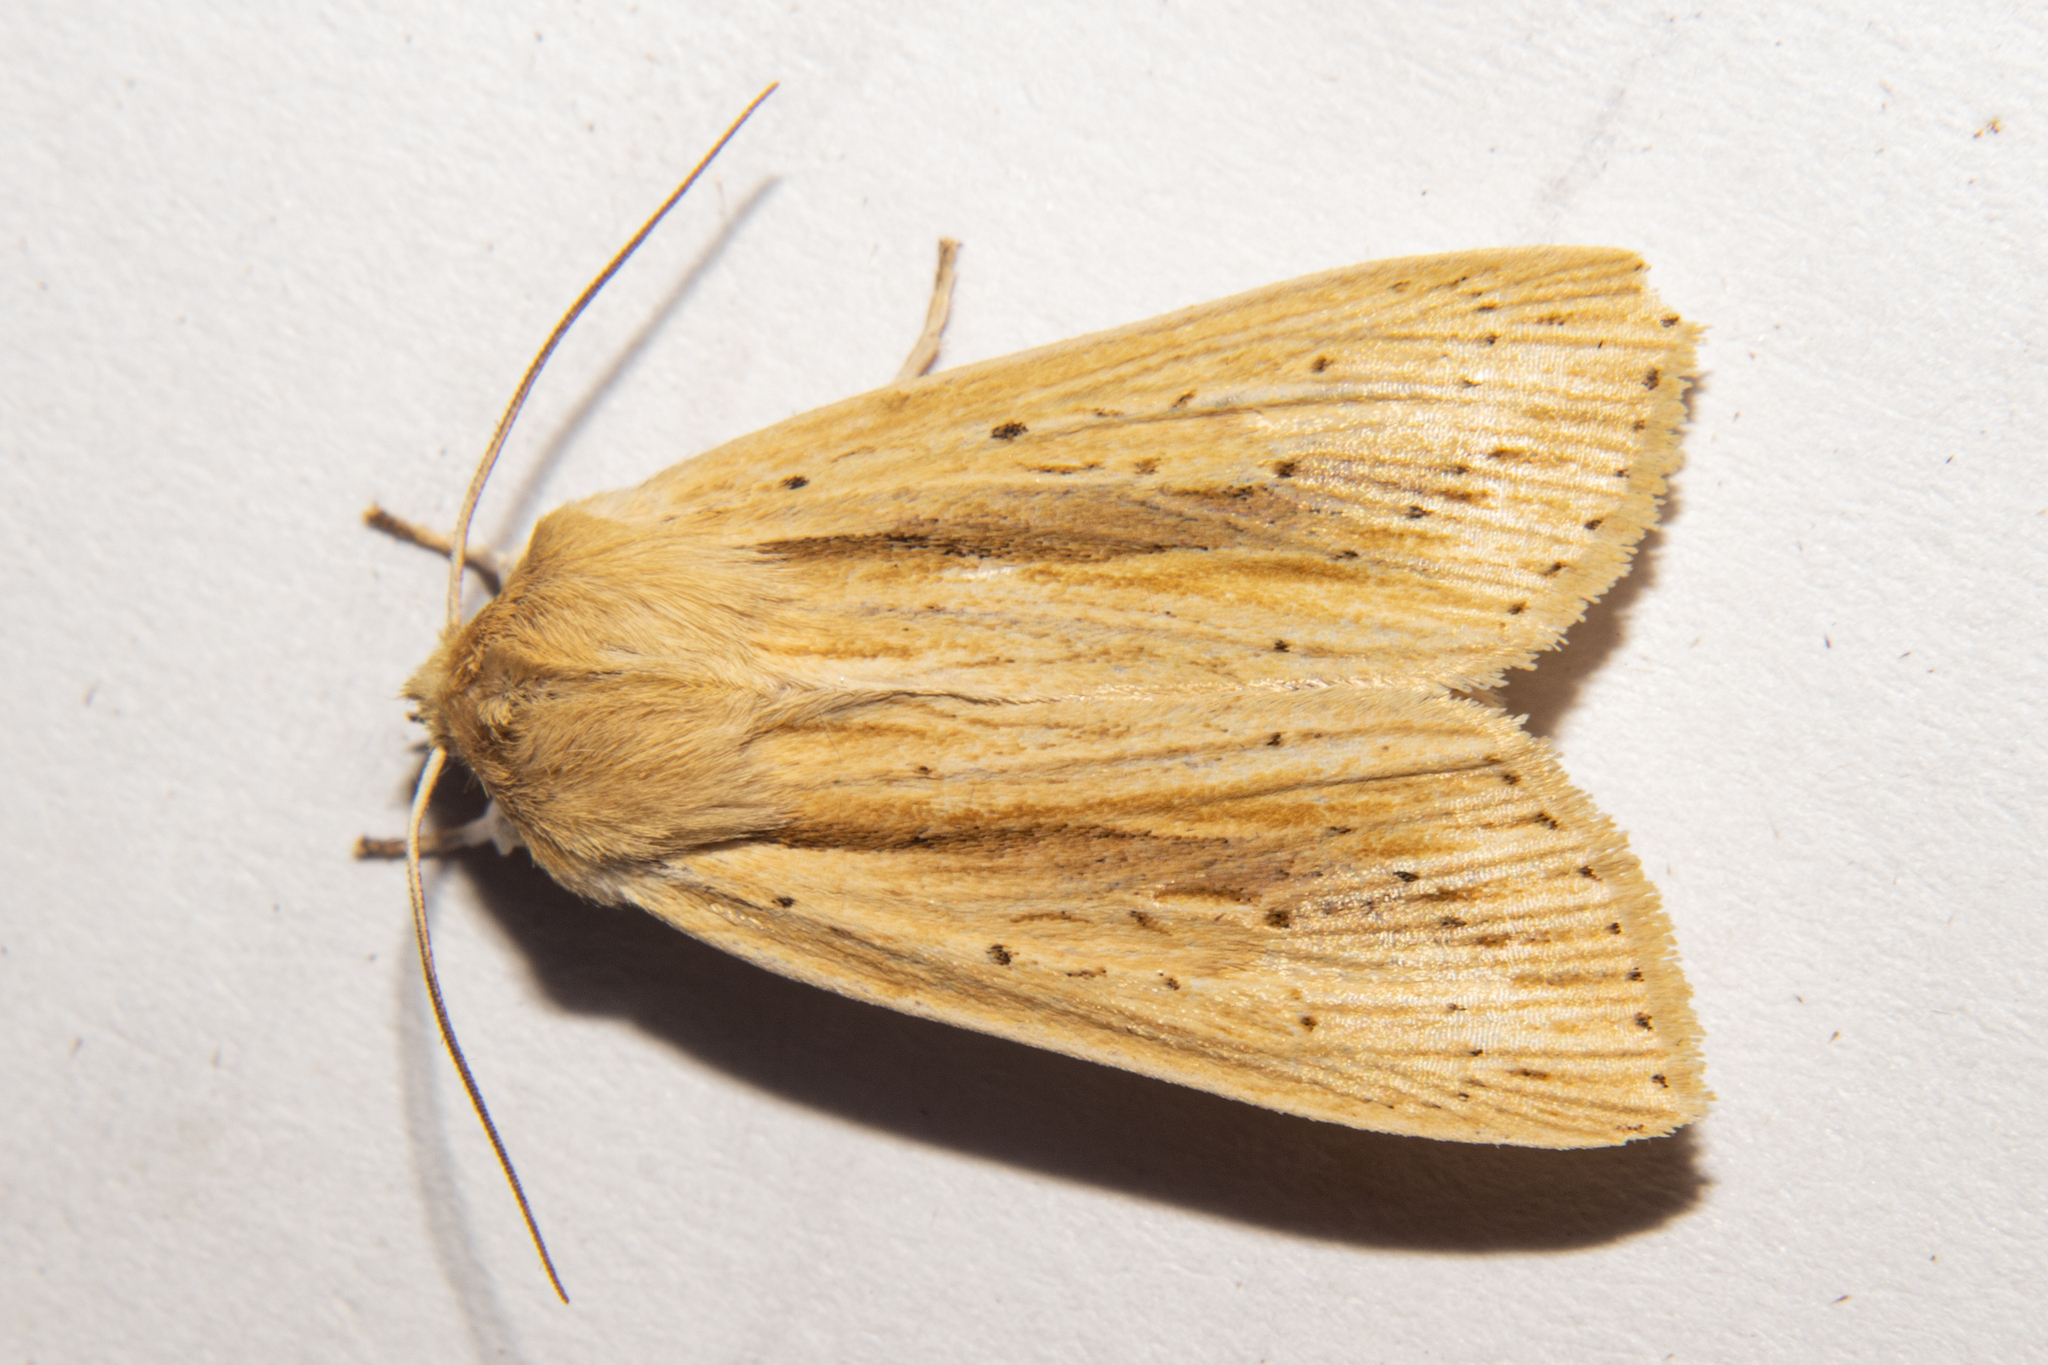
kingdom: Animalia
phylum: Arthropoda
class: Insecta
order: Lepidoptera
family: Noctuidae
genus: Ichneutica
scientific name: Ichneutica semivittata
